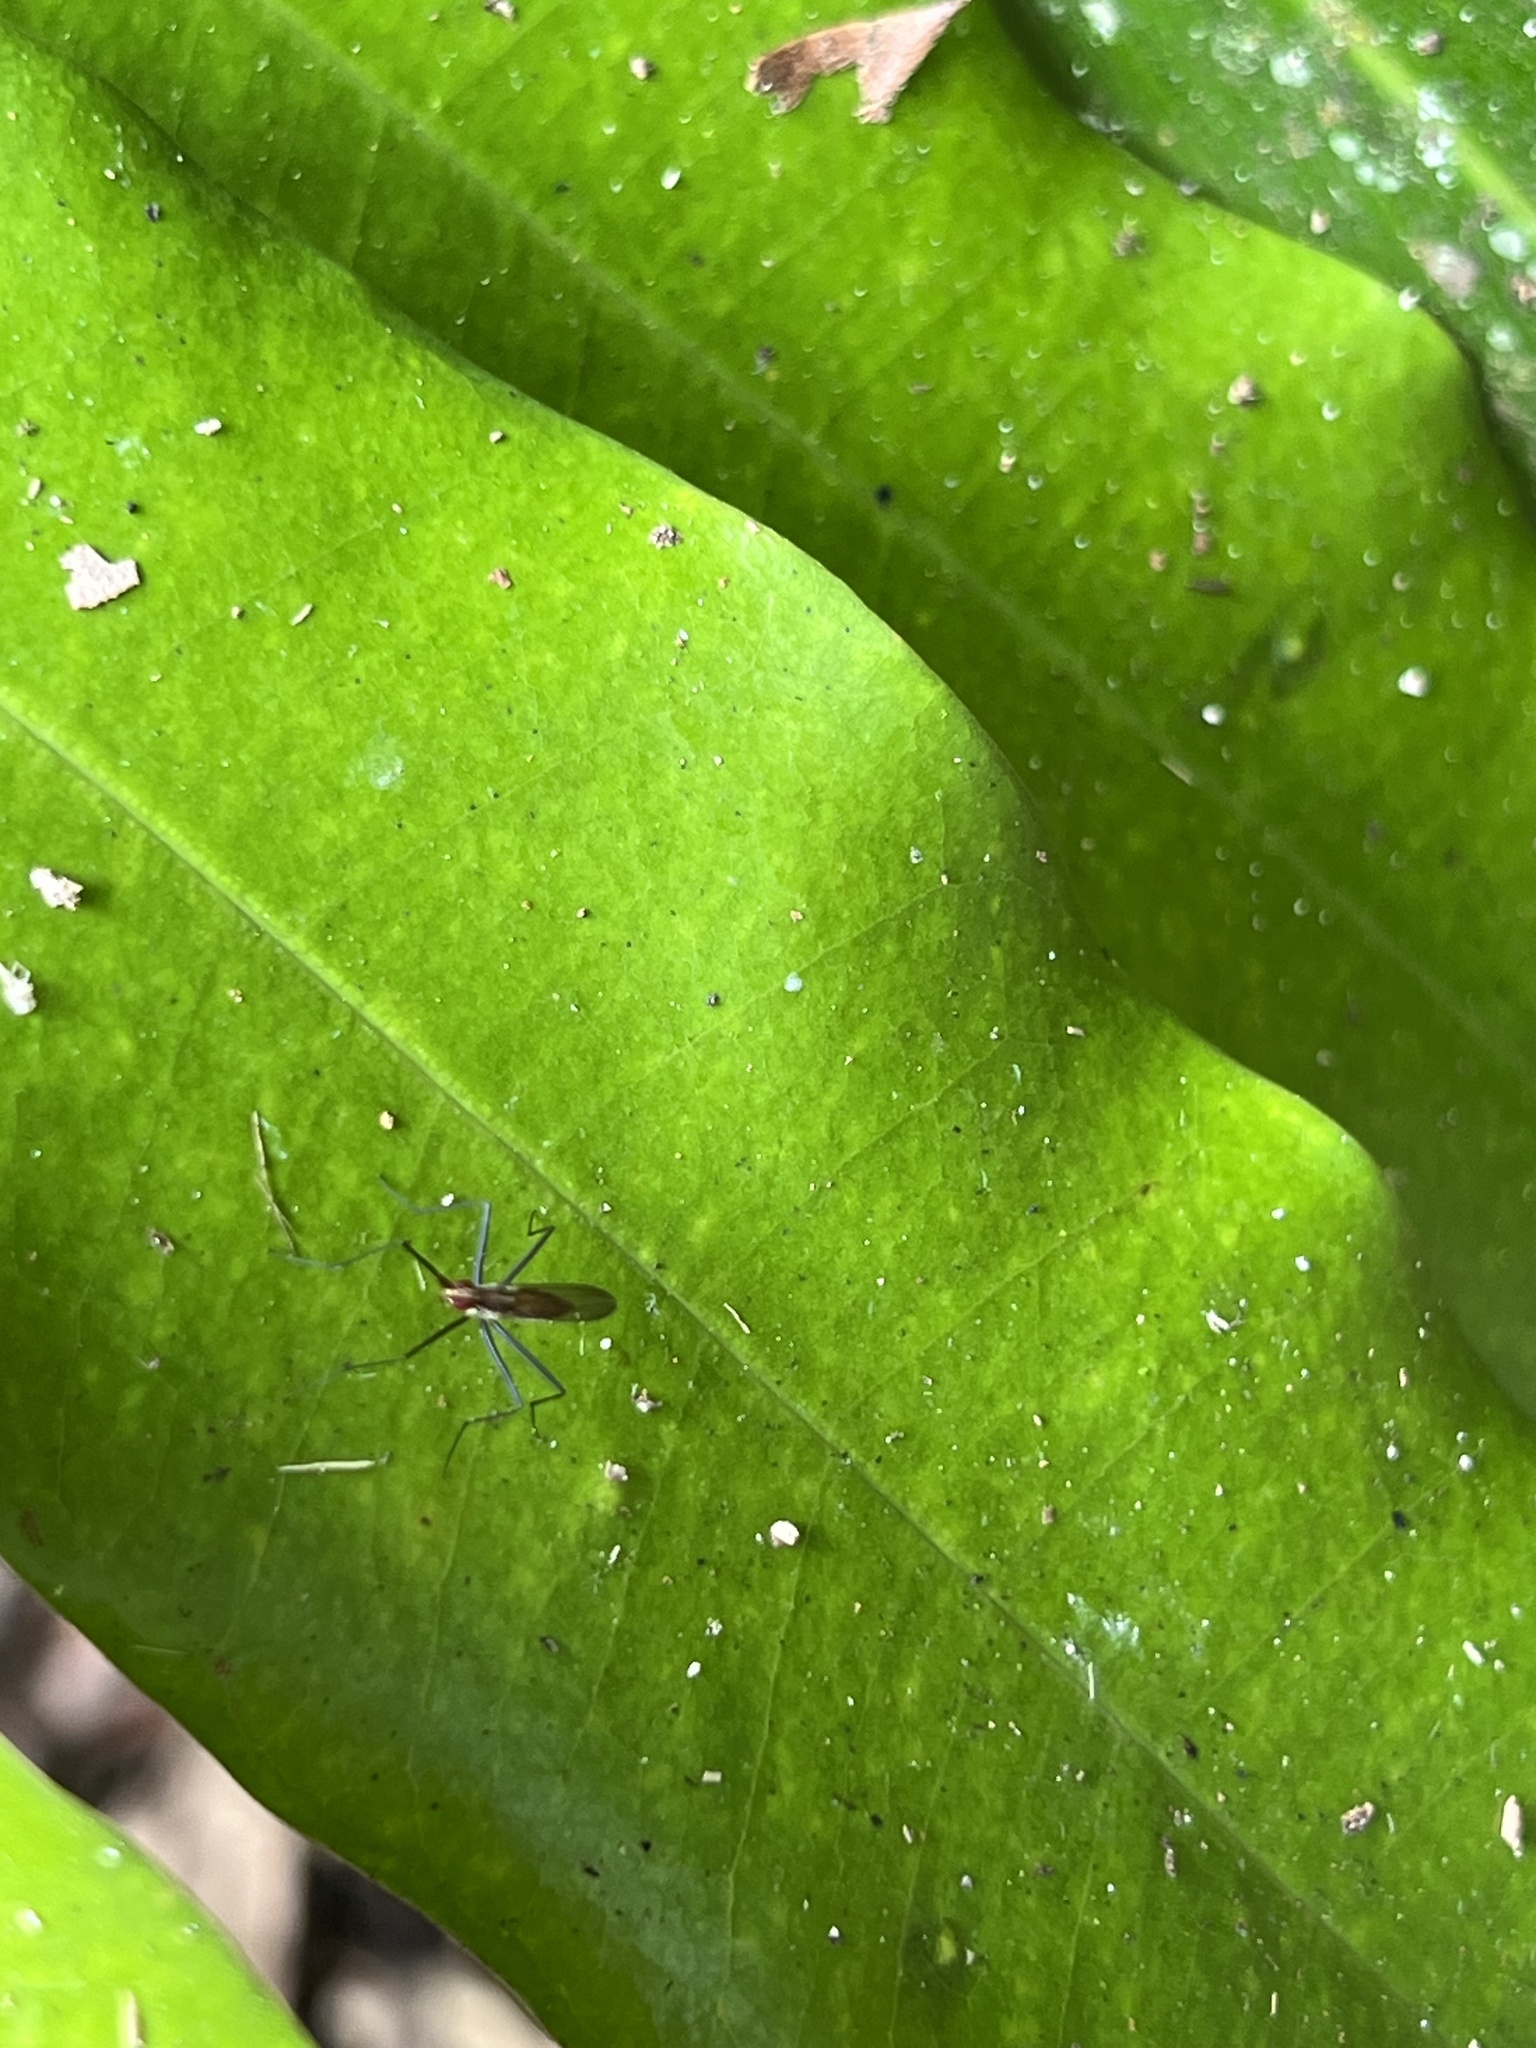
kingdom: Animalia
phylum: Arthropoda
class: Insecta
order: Diptera
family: Neriidae
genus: Telostylinus
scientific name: Telostylinus lineolatus
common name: Banana stalk fly
